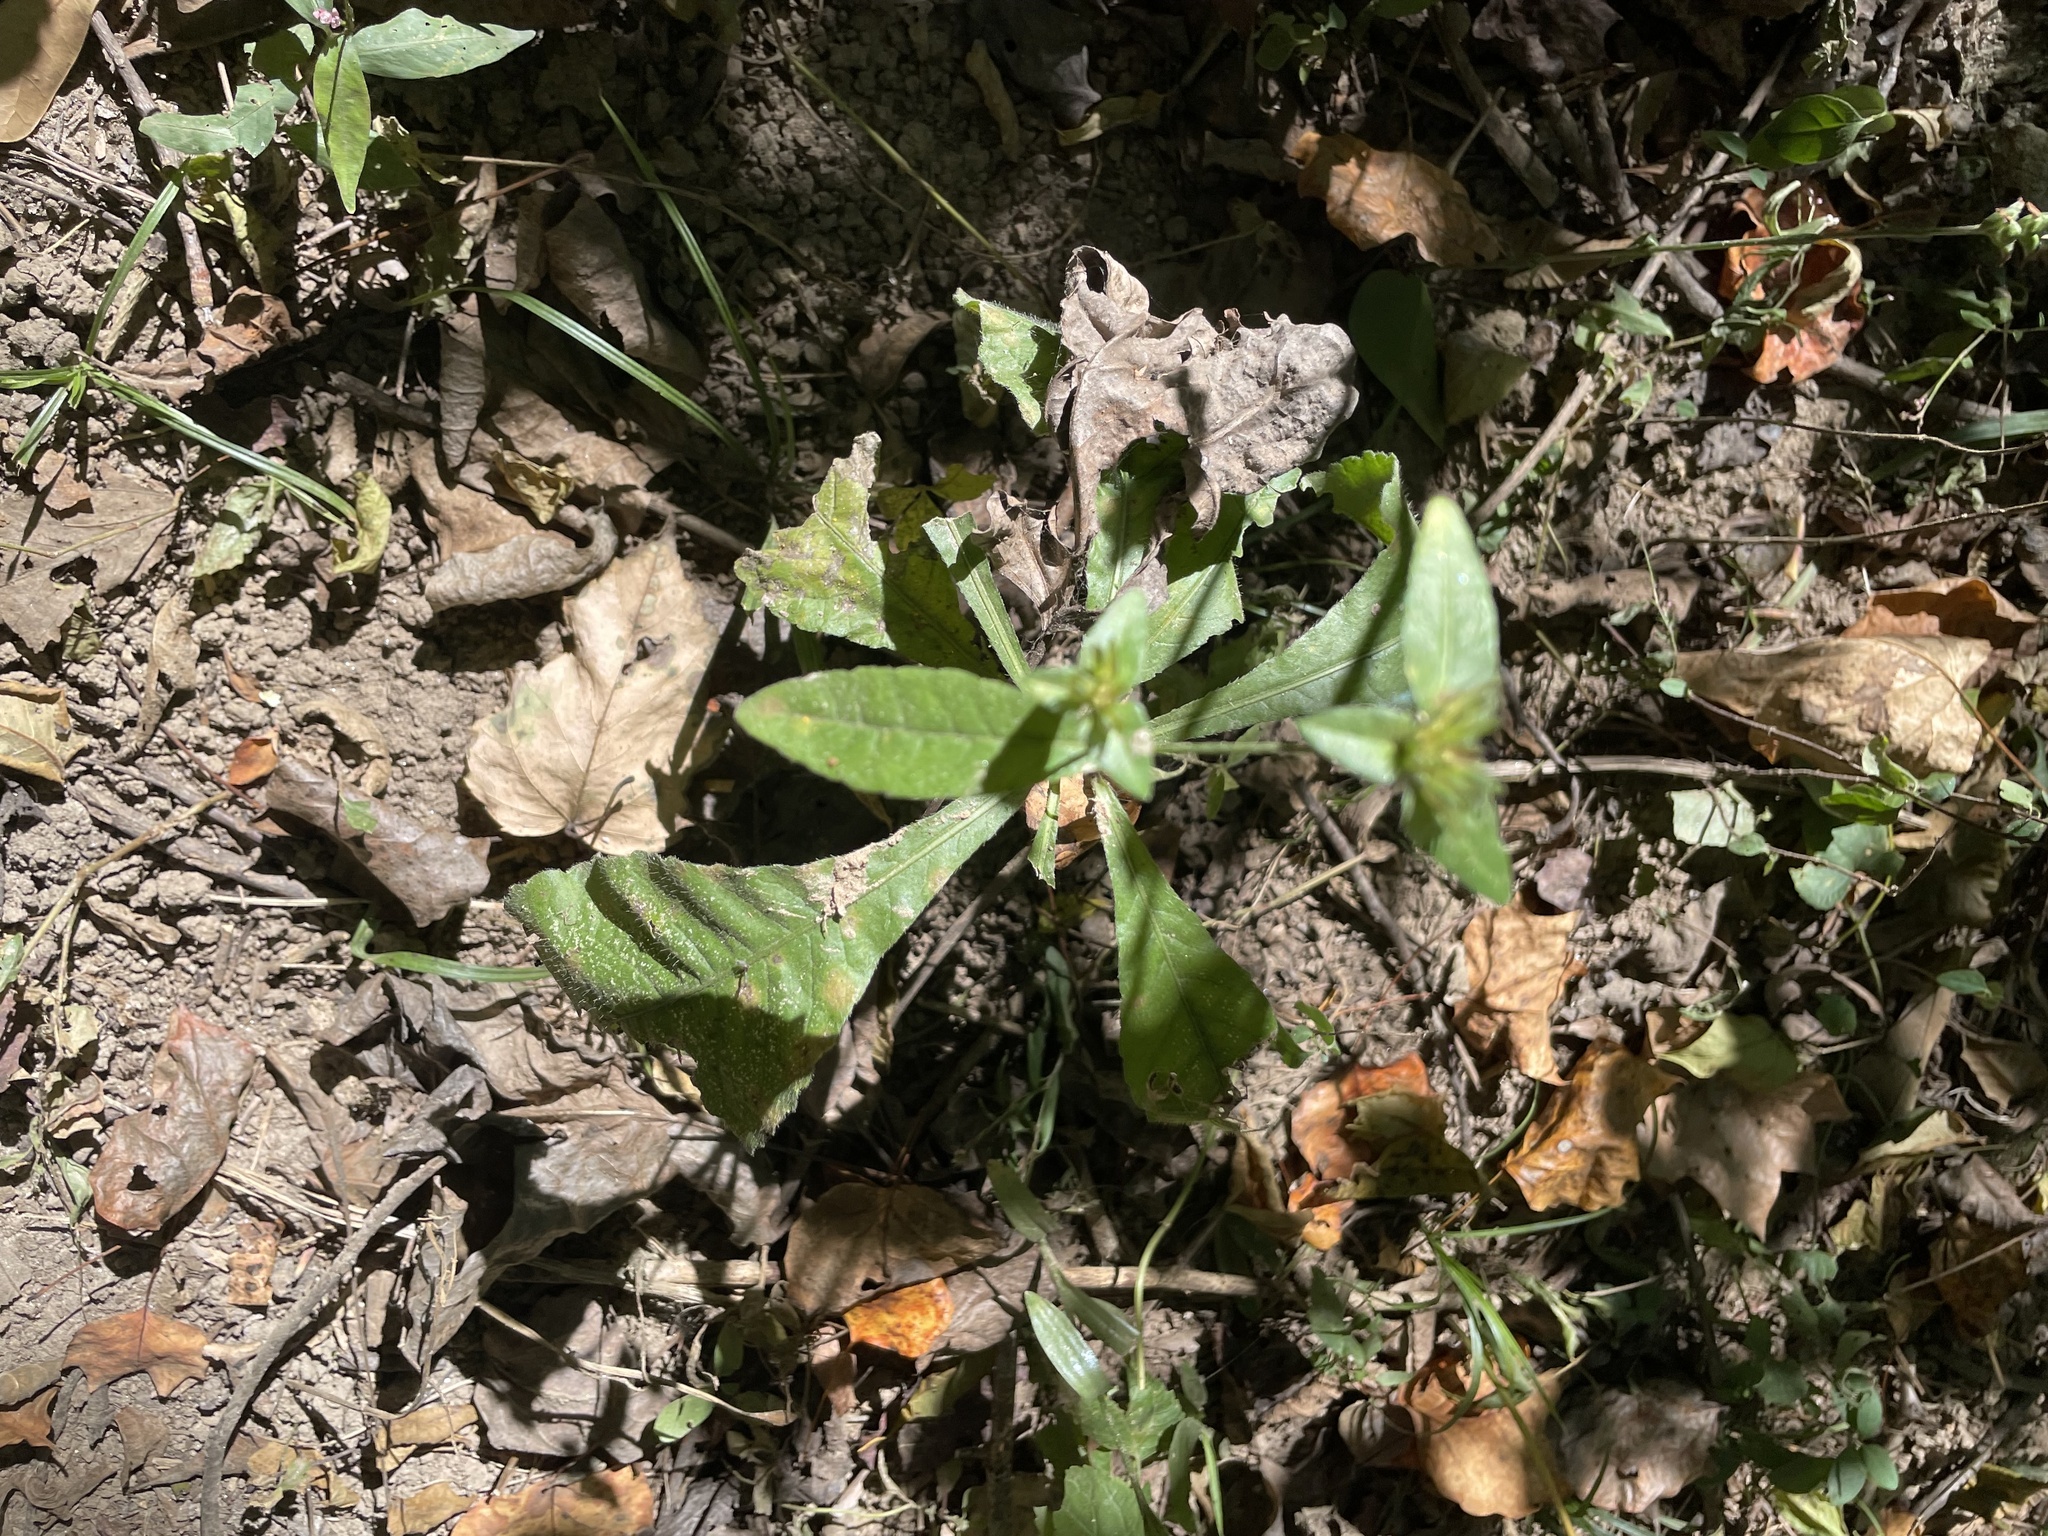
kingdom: Plantae
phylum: Tracheophyta
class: Magnoliopsida
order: Asterales
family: Asteraceae
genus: Elephantopus
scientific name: Elephantopus carolinianus
